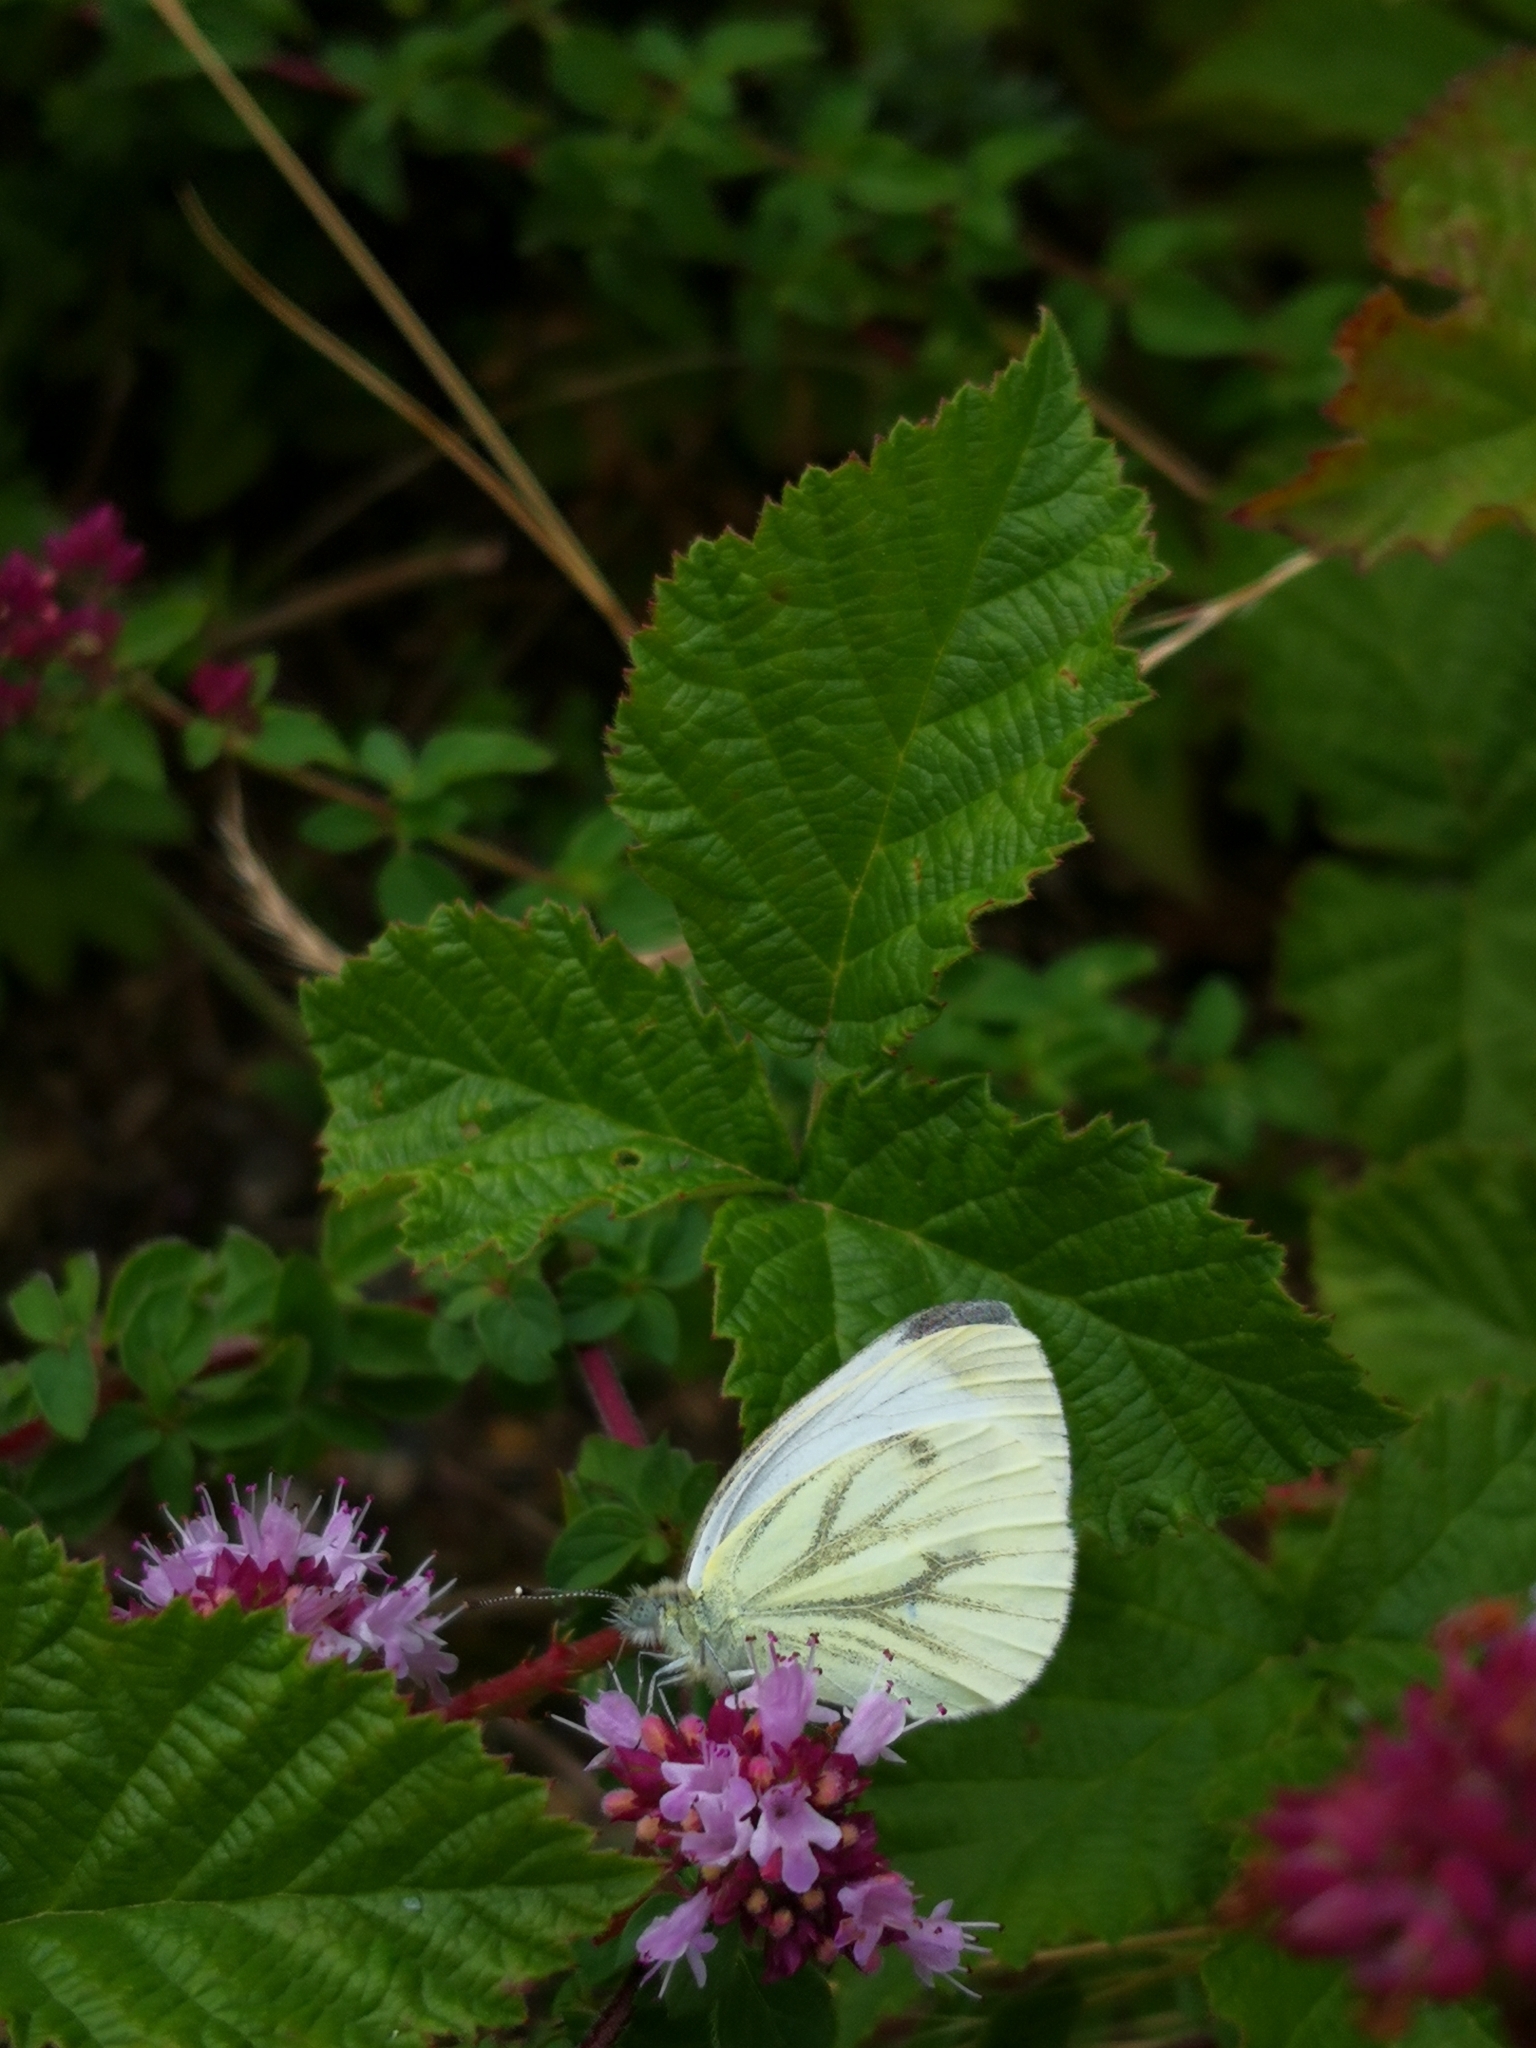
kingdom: Animalia
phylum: Arthropoda
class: Insecta
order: Lepidoptera
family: Pieridae
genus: Pieris
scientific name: Pieris napi
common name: Green-veined white
